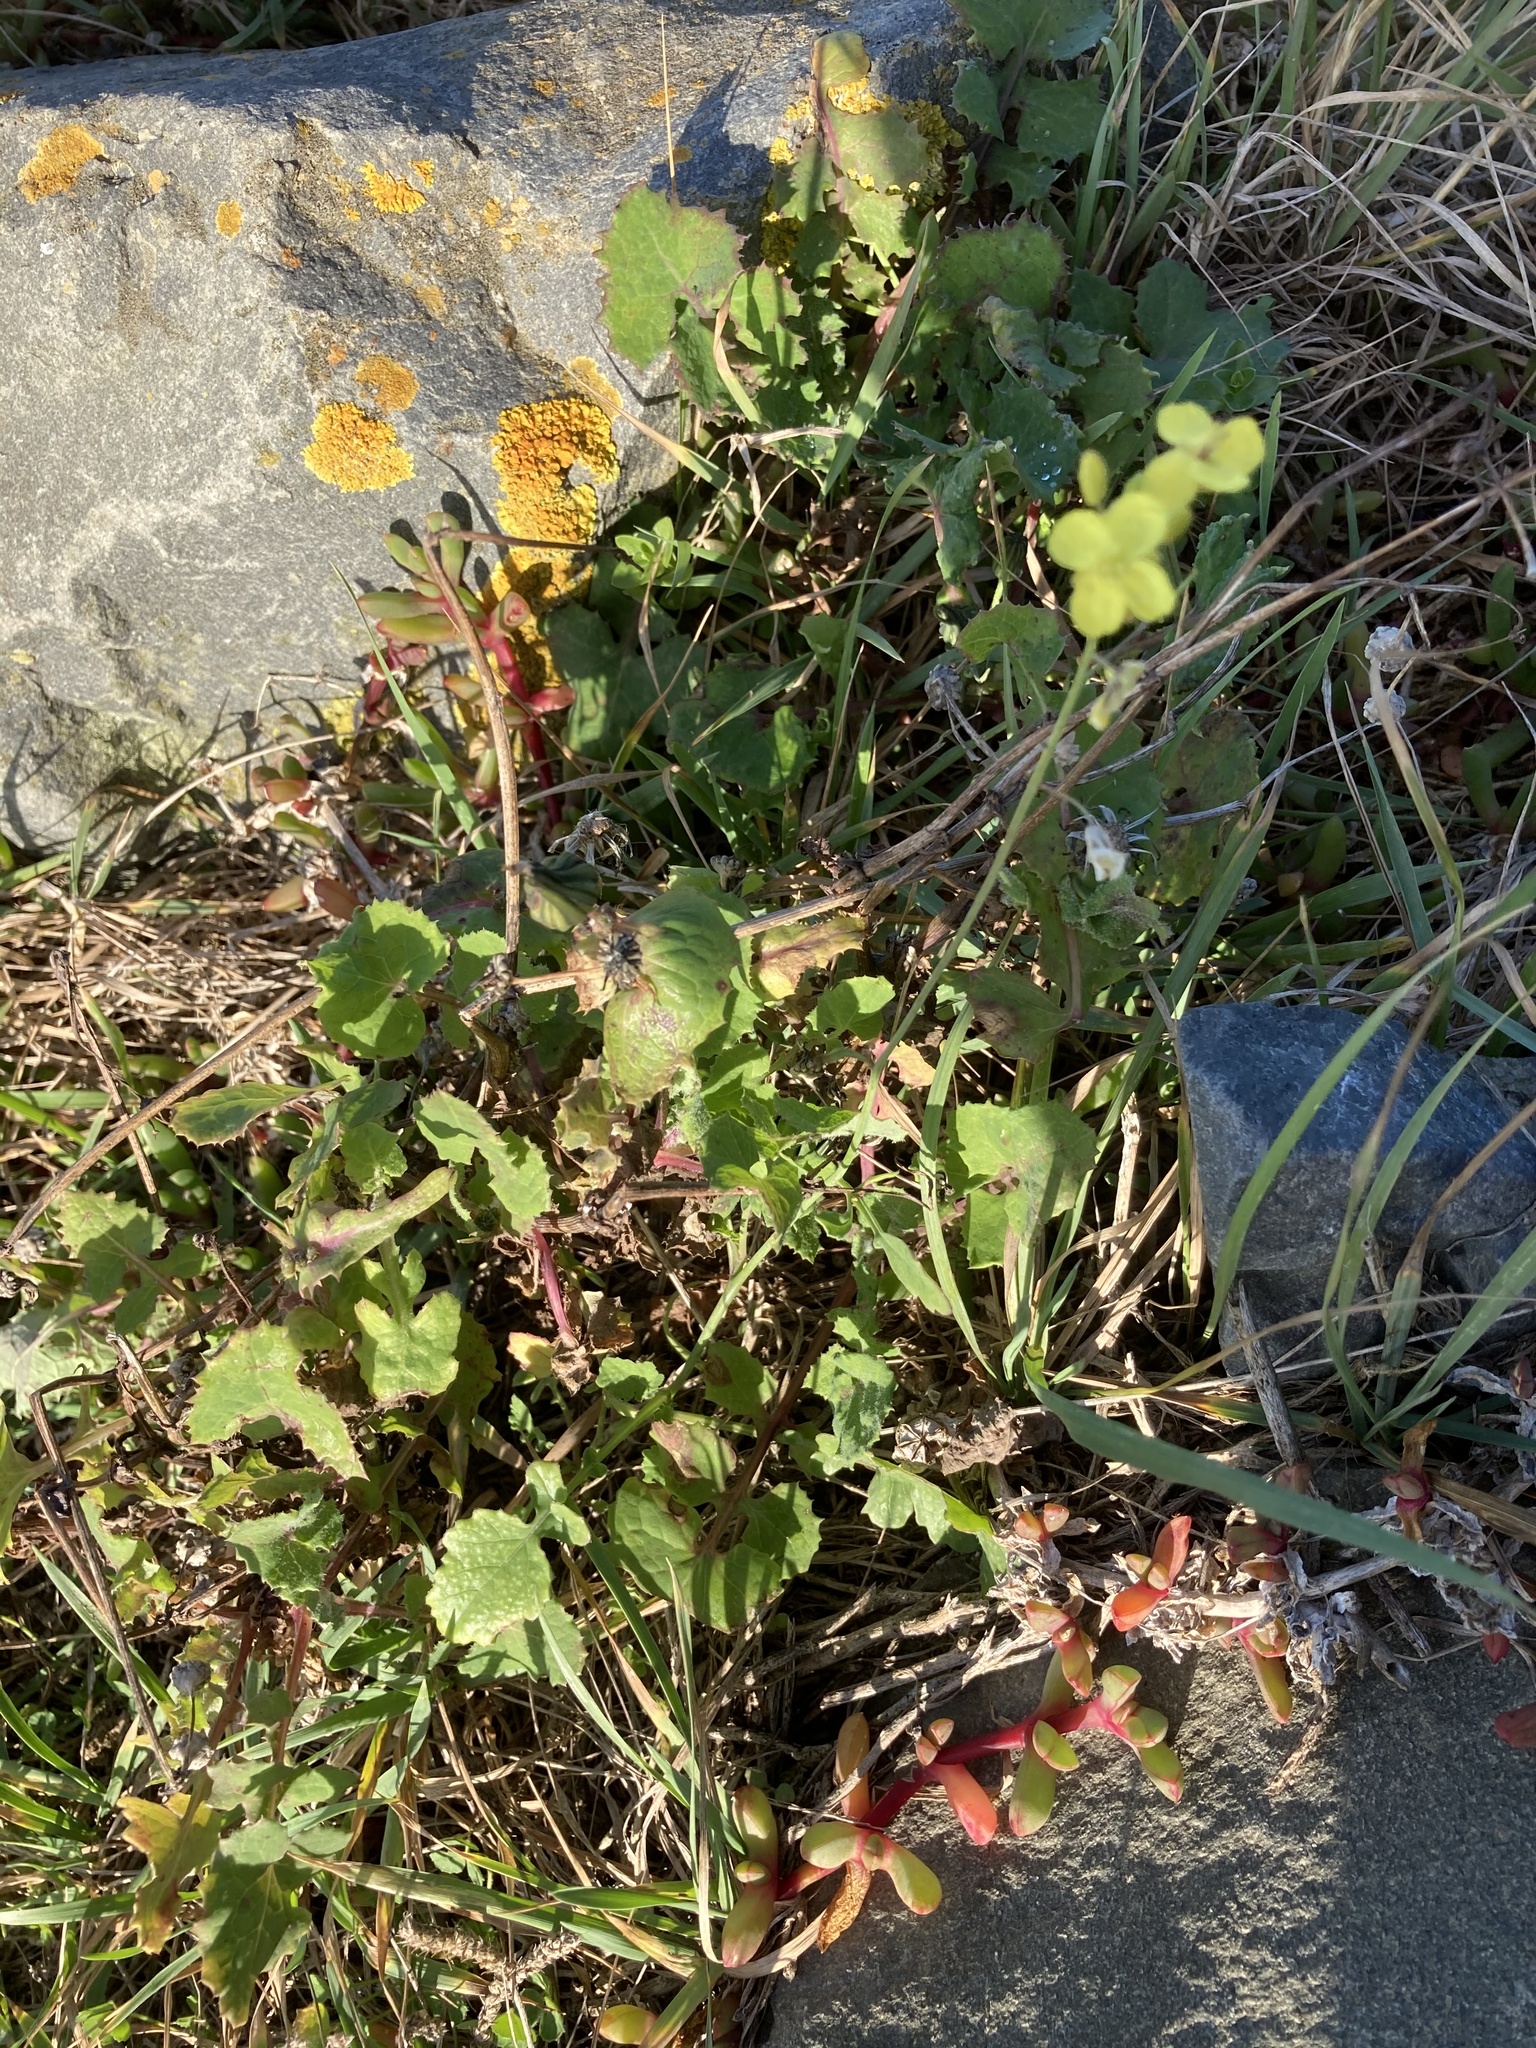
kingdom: Plantae
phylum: Tracheophyta
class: Magnoliopsida
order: Asterales
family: Asteraceae
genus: Sonchus
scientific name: Sonchus oleraceus
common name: Common sowthistle
